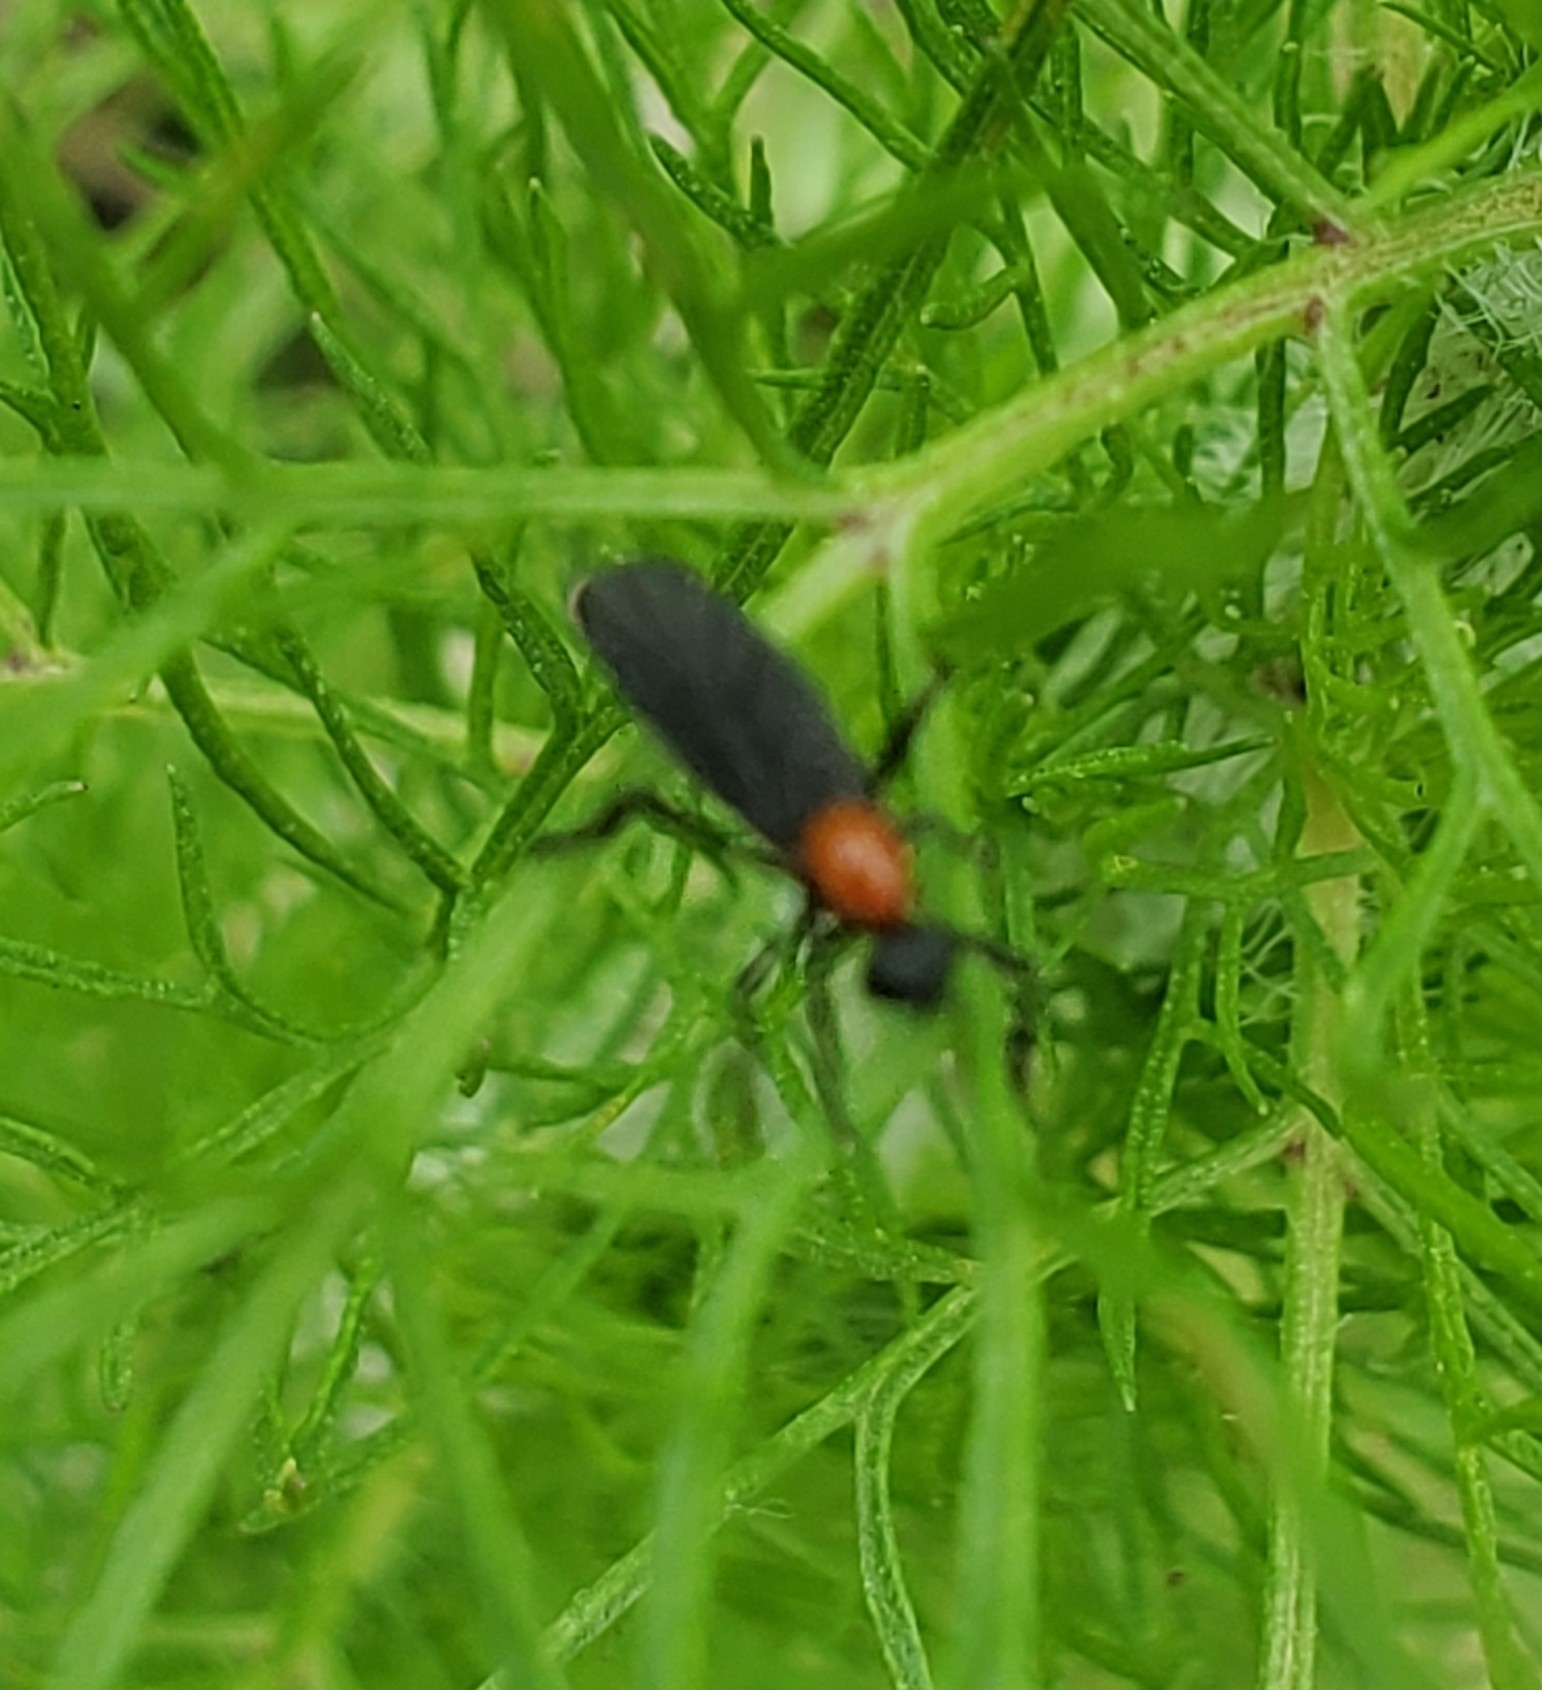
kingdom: Animalia
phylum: Arthropoda
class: Insecta
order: Diptera
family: Bibionidae
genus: Plecia
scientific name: Plecia nearctica
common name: March fly
